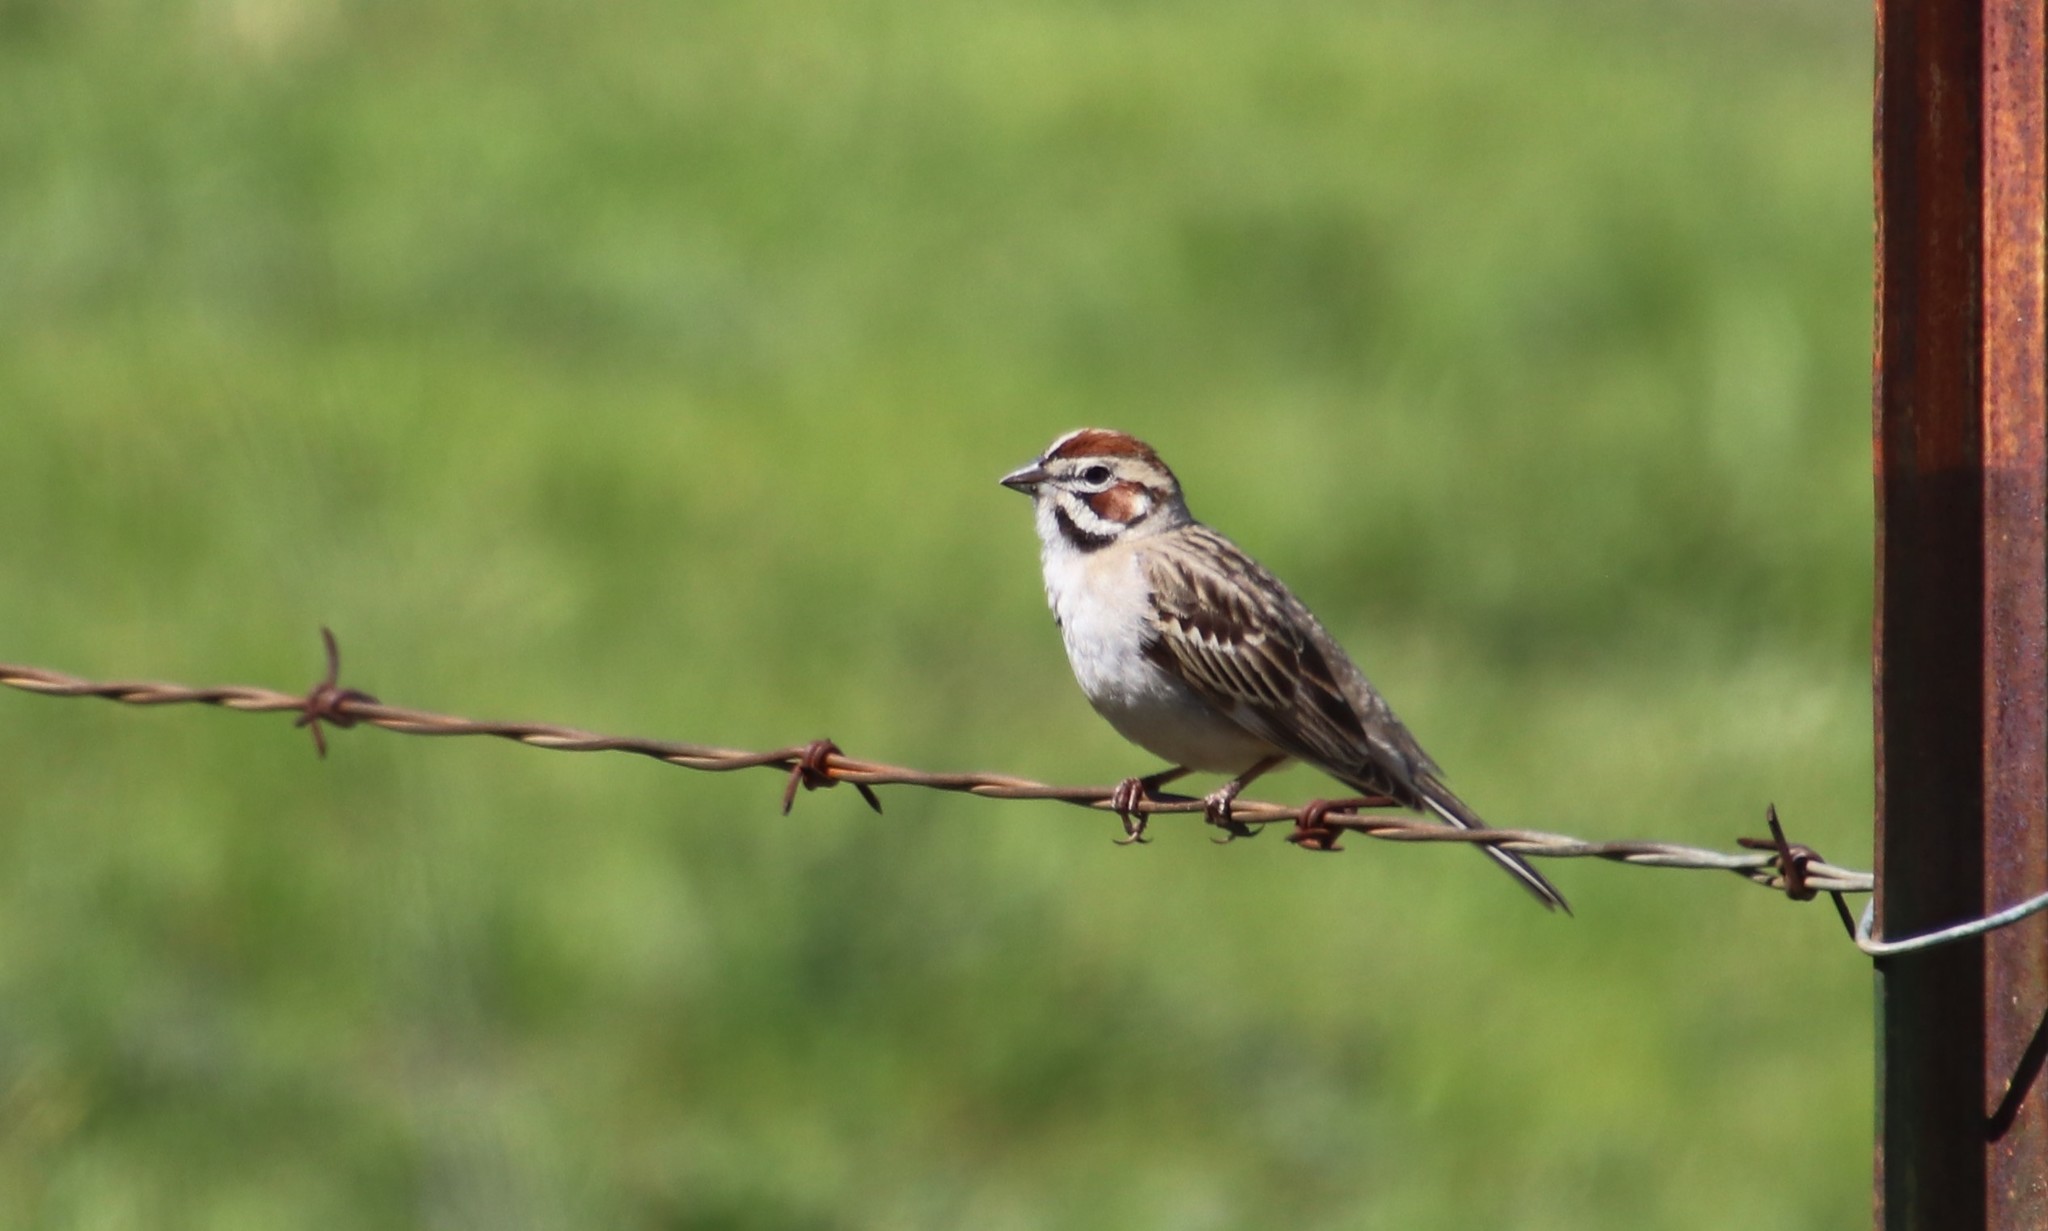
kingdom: Animalia
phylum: Chordata
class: Aves
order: Passeriformes
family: Passerellidae
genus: Chondestes
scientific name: Chondestes grammacus
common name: Lark sparrow
